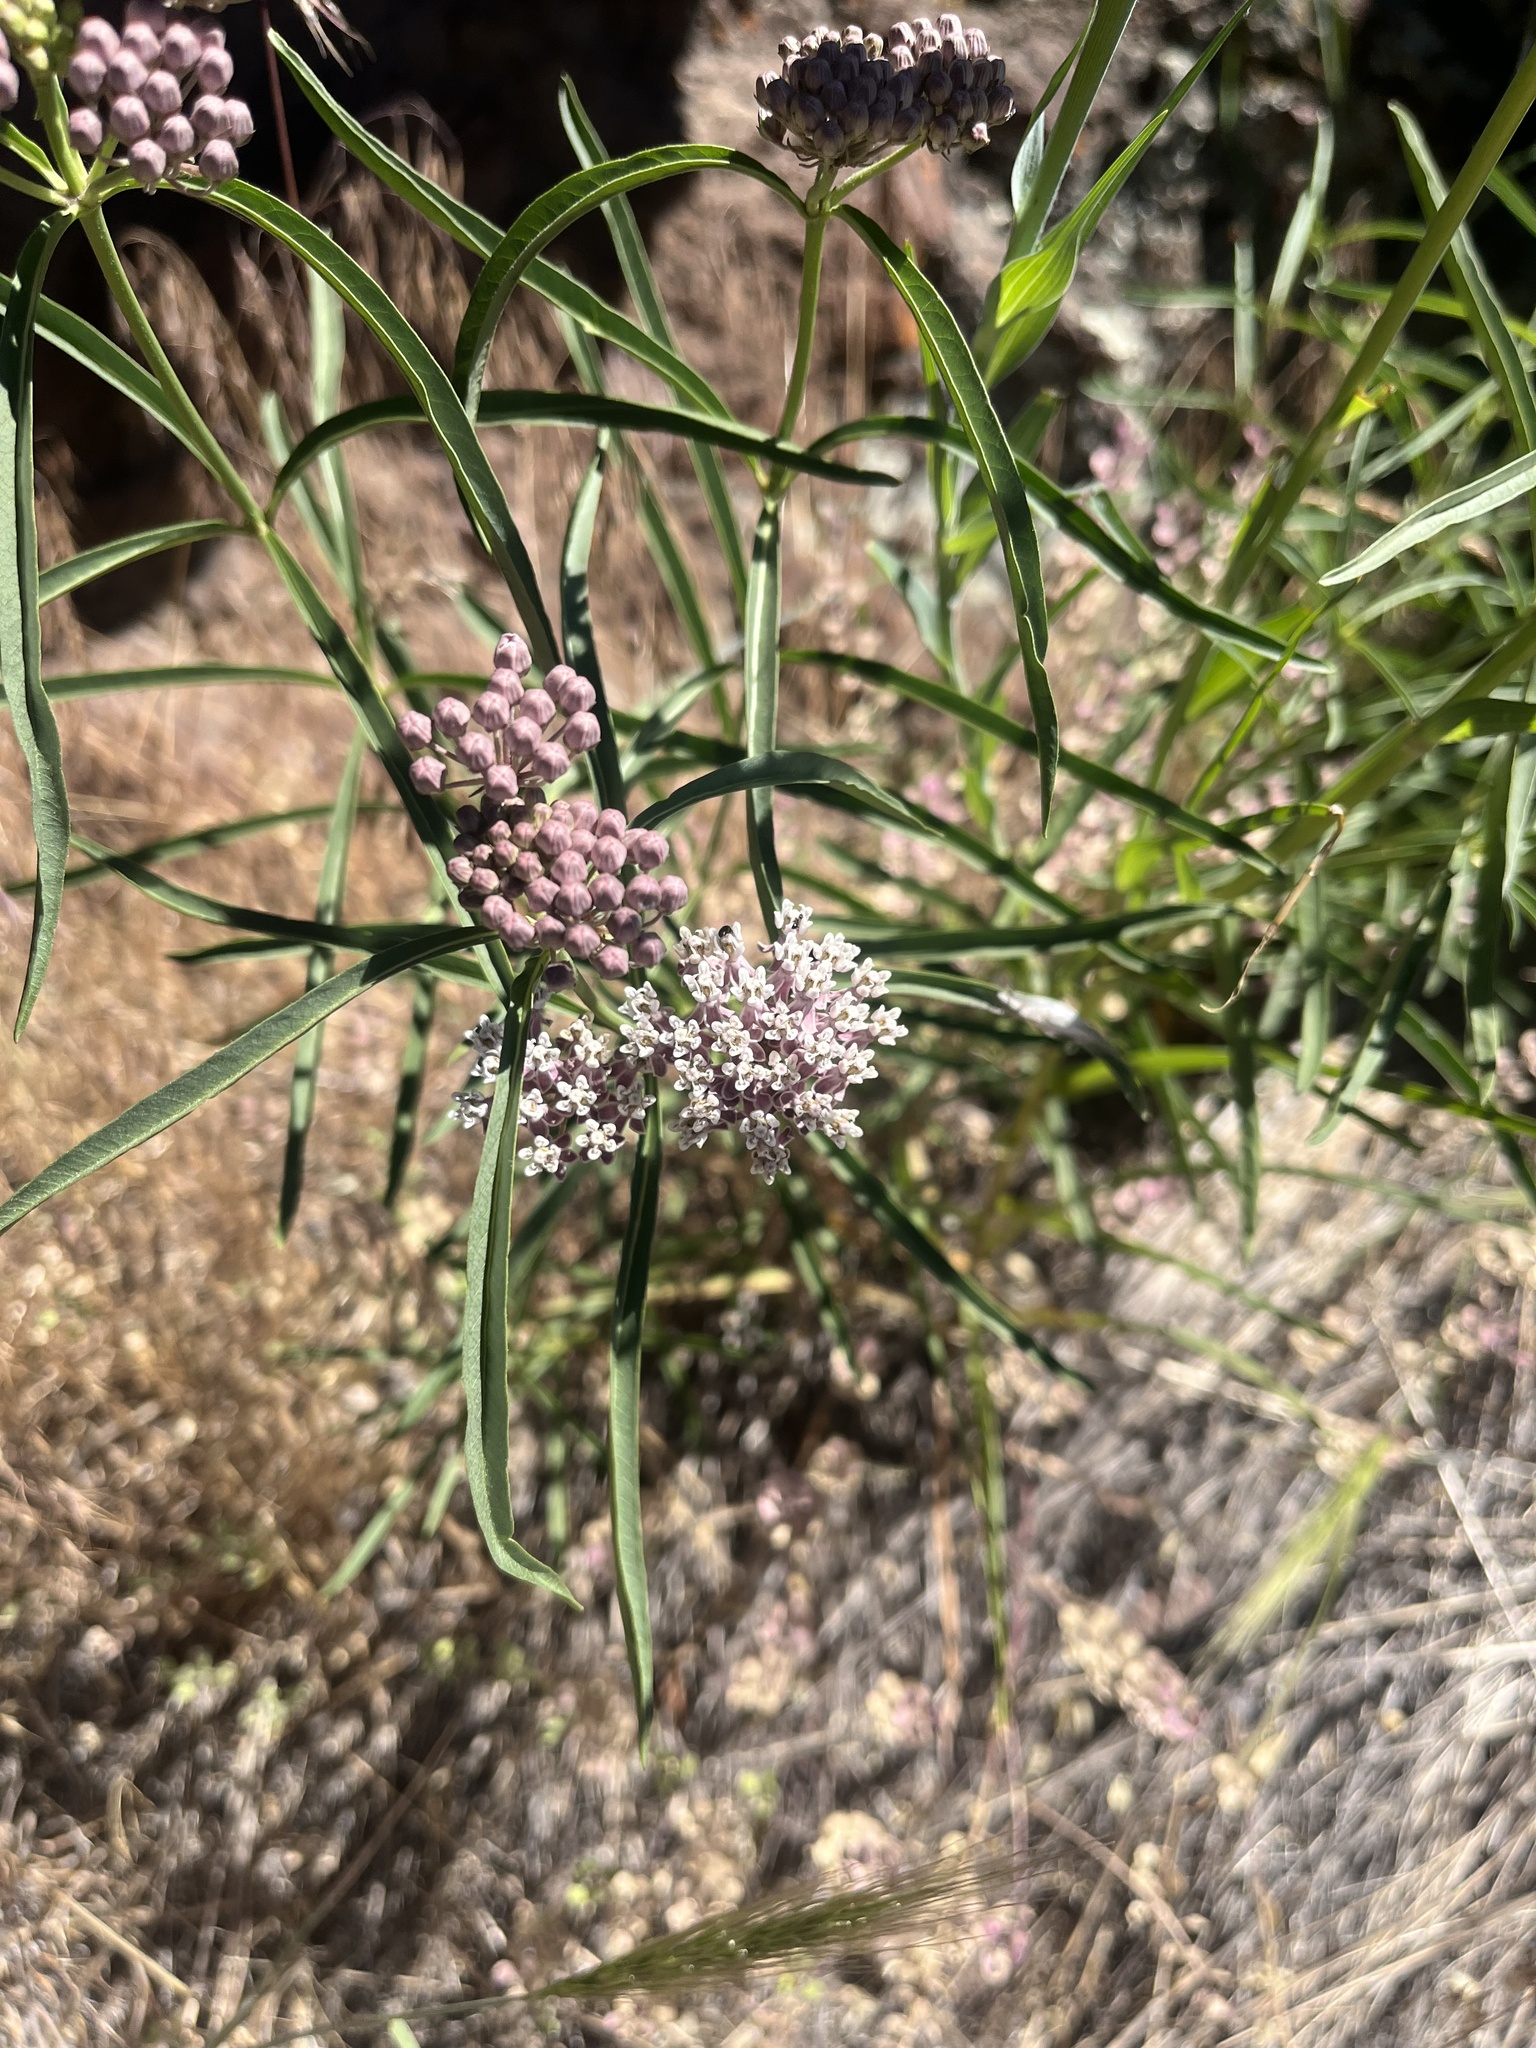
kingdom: Plantae
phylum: Tracheophyta
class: Magnoliopsida
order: Gentianales
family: Apocynaceae
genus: Asclepias
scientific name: Asclepias fascicularis
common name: Mexican milkweed
